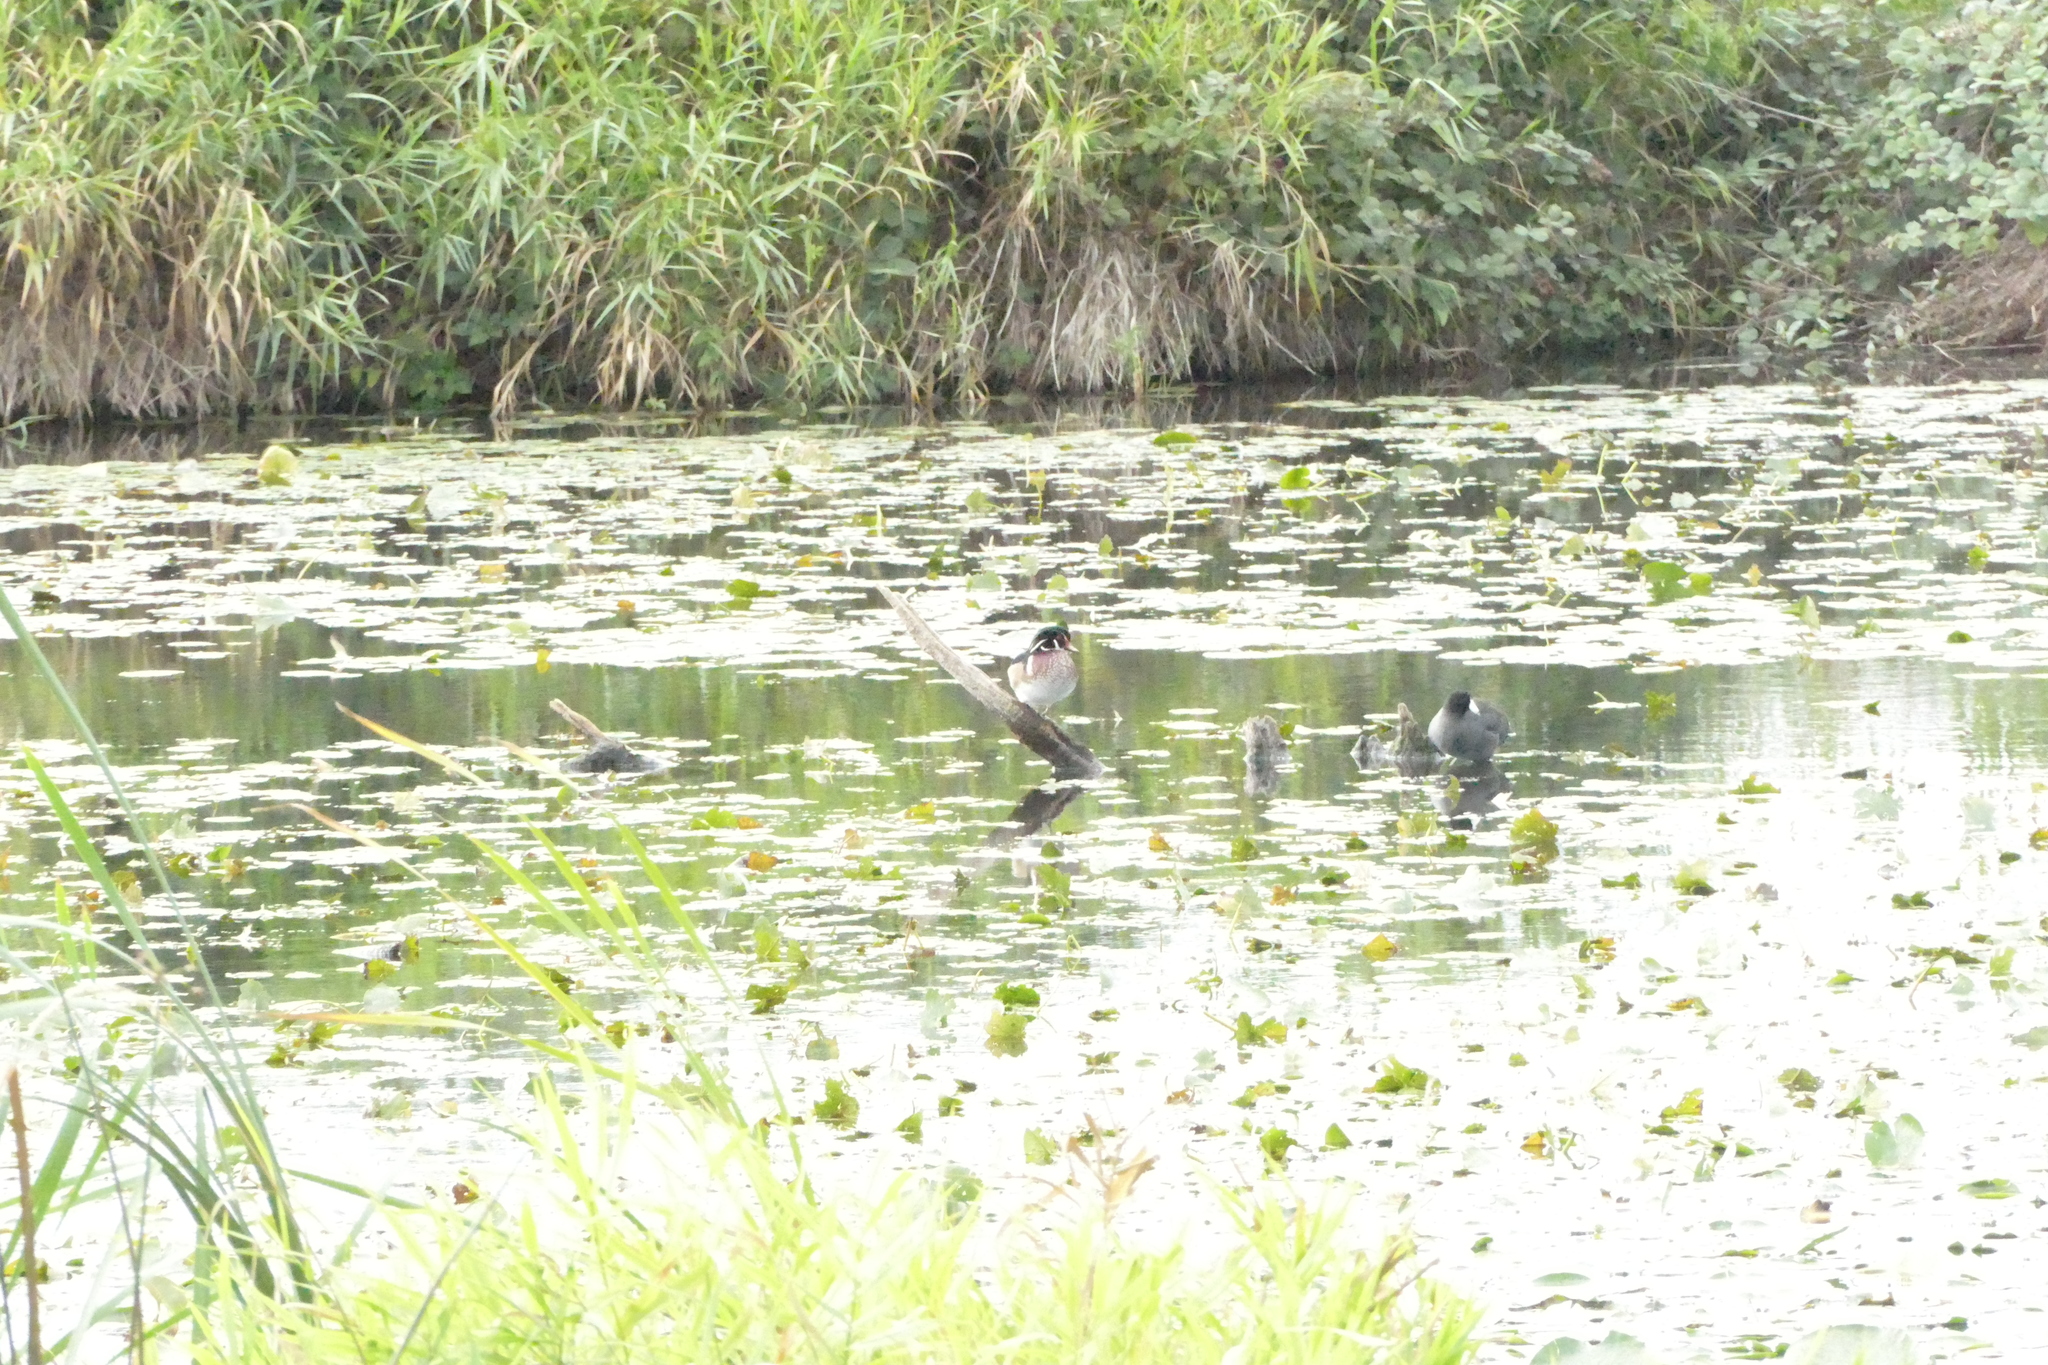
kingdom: Animalia
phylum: Chordata
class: Aves
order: Anseriformes
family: Anatidae
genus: Aix
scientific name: Aix sponsa
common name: Wood duck
